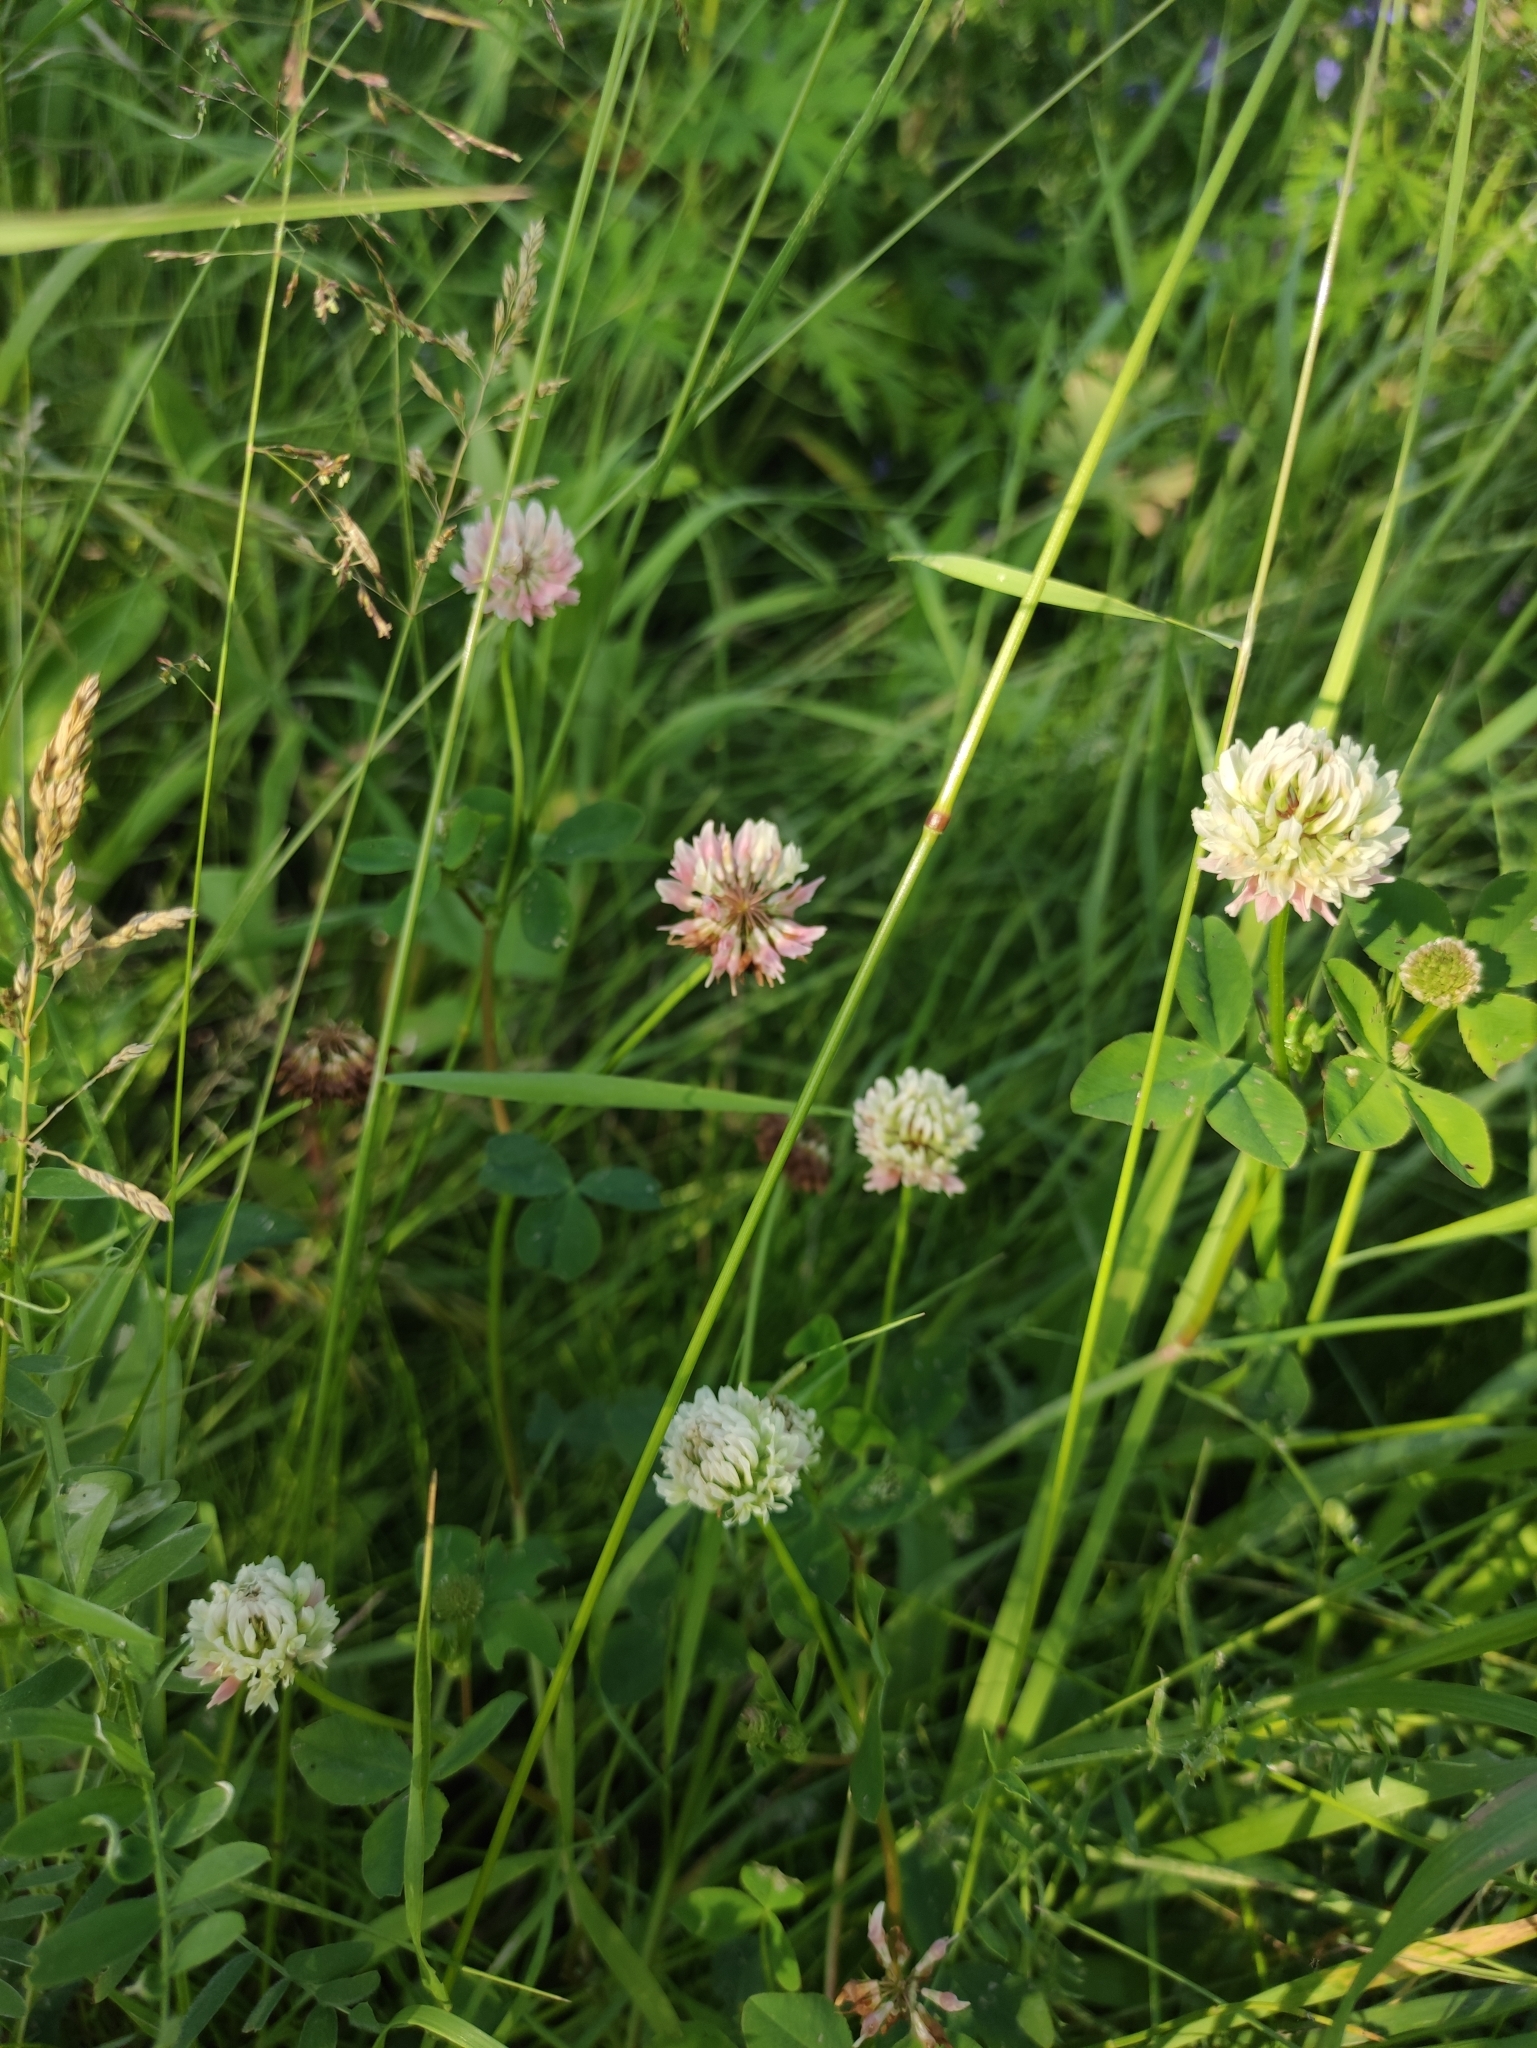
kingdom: Plantae
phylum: Tracheophyta
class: Magnoliopsida
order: Fabales
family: Fabaceae
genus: Trifolium
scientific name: Trifolium hybridum
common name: Alsike clover
